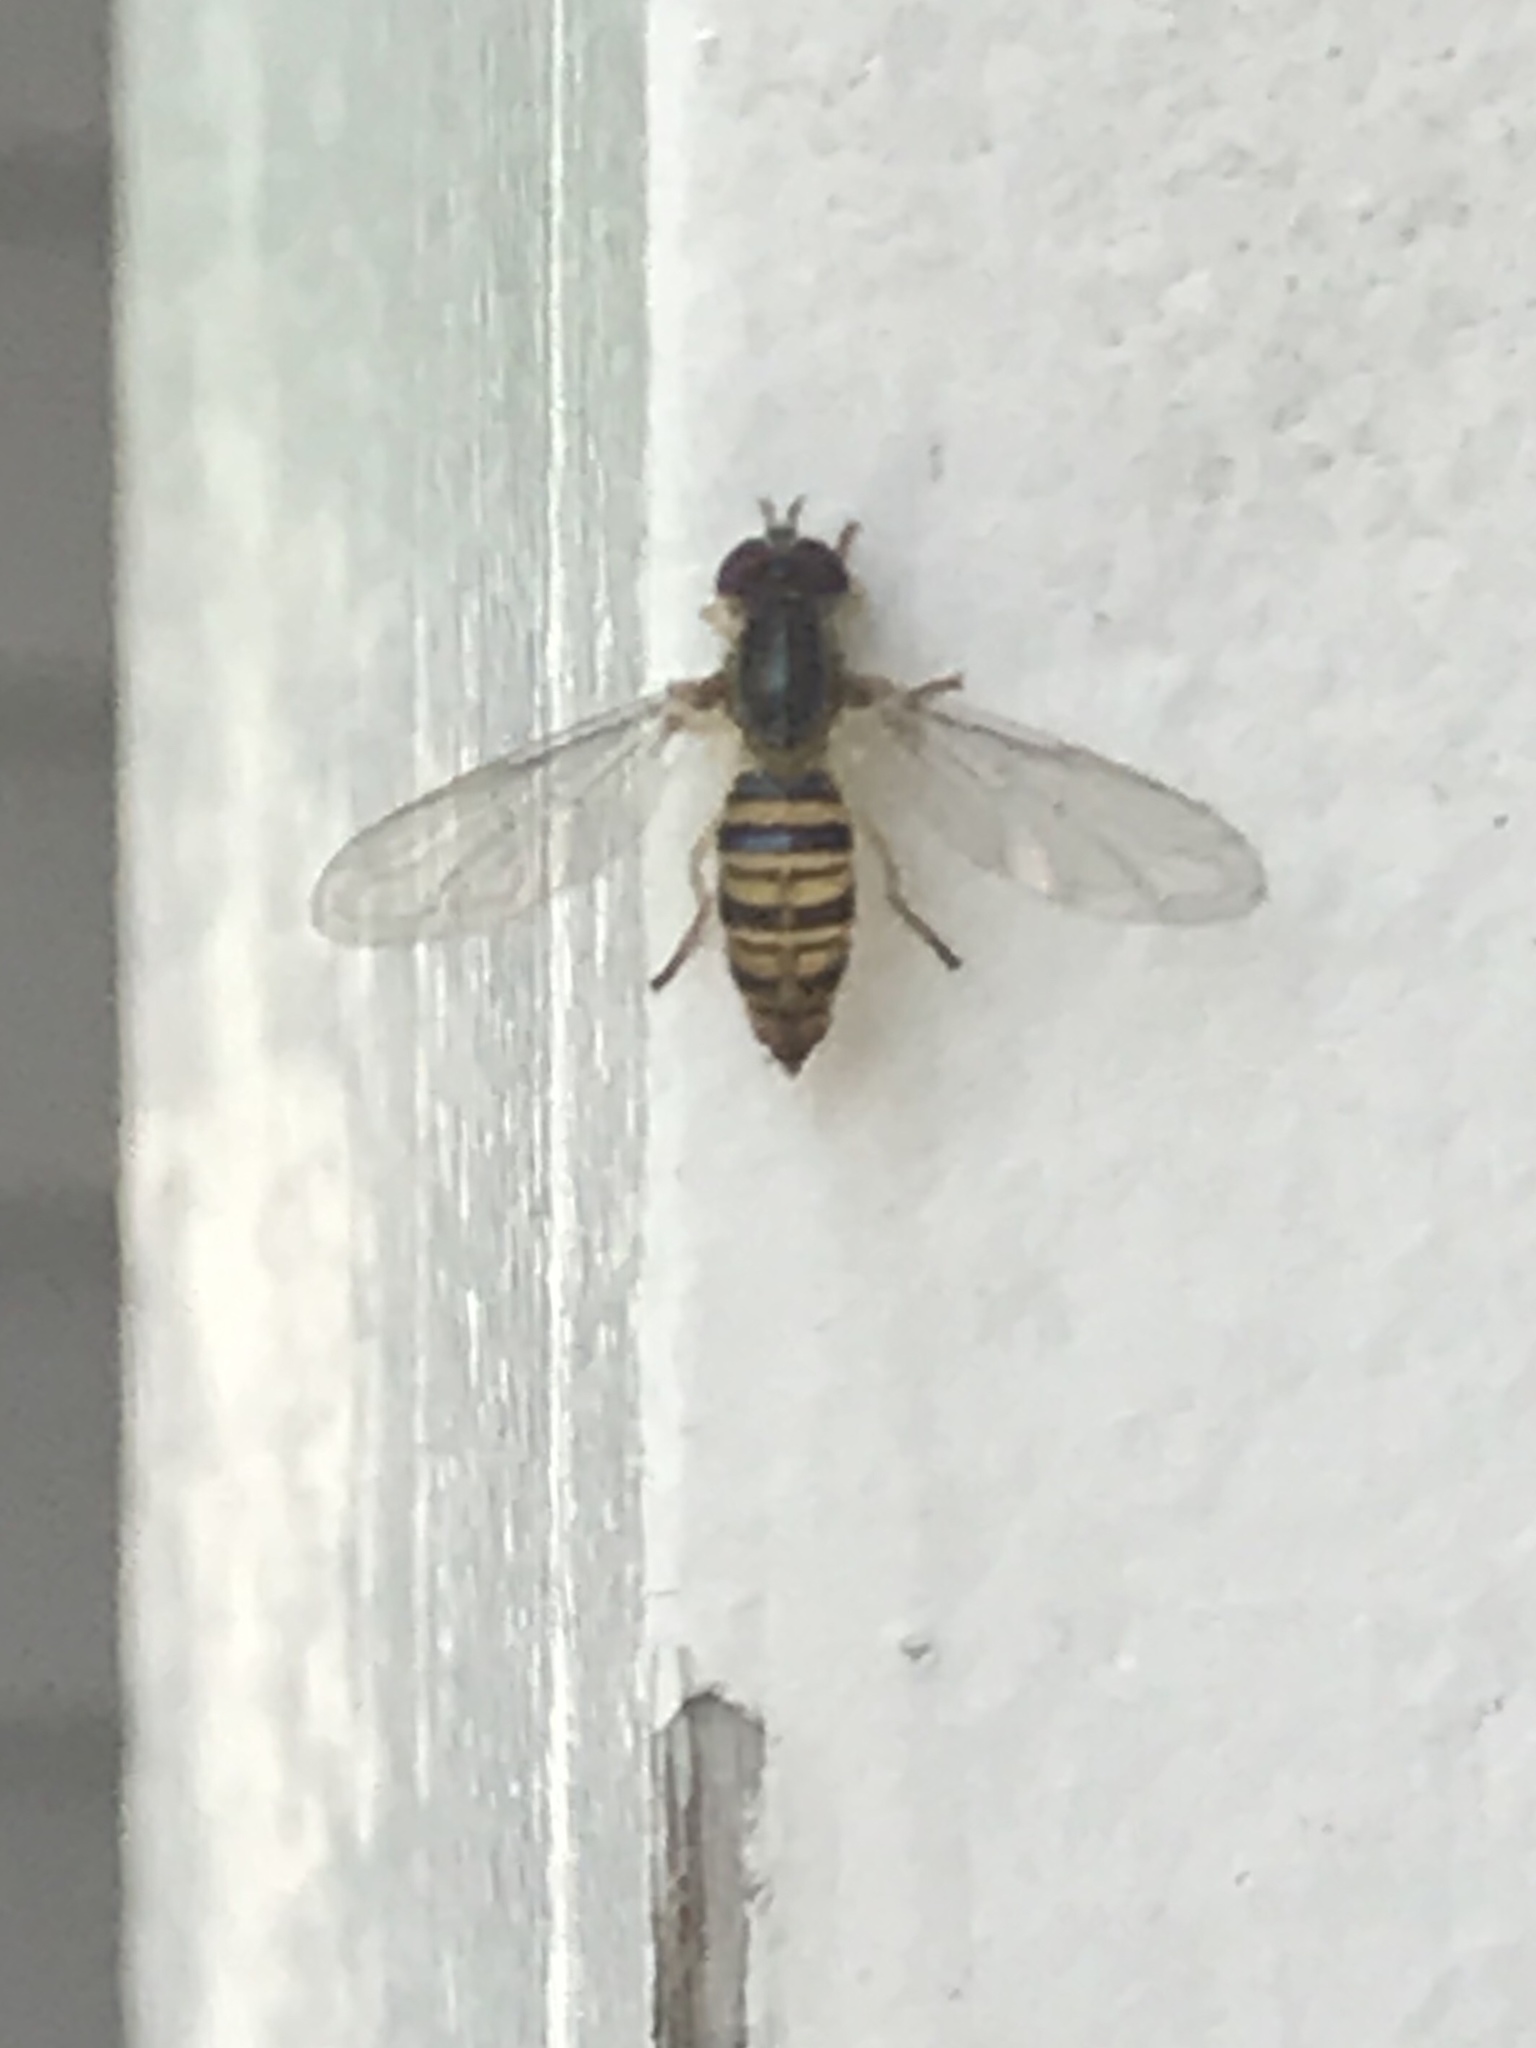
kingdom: Animalia
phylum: Arthropoda
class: Insecta
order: Diptera
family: Syrphidae
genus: Toxomerus
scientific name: Toxomerus politus
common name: Maize calligrapher
